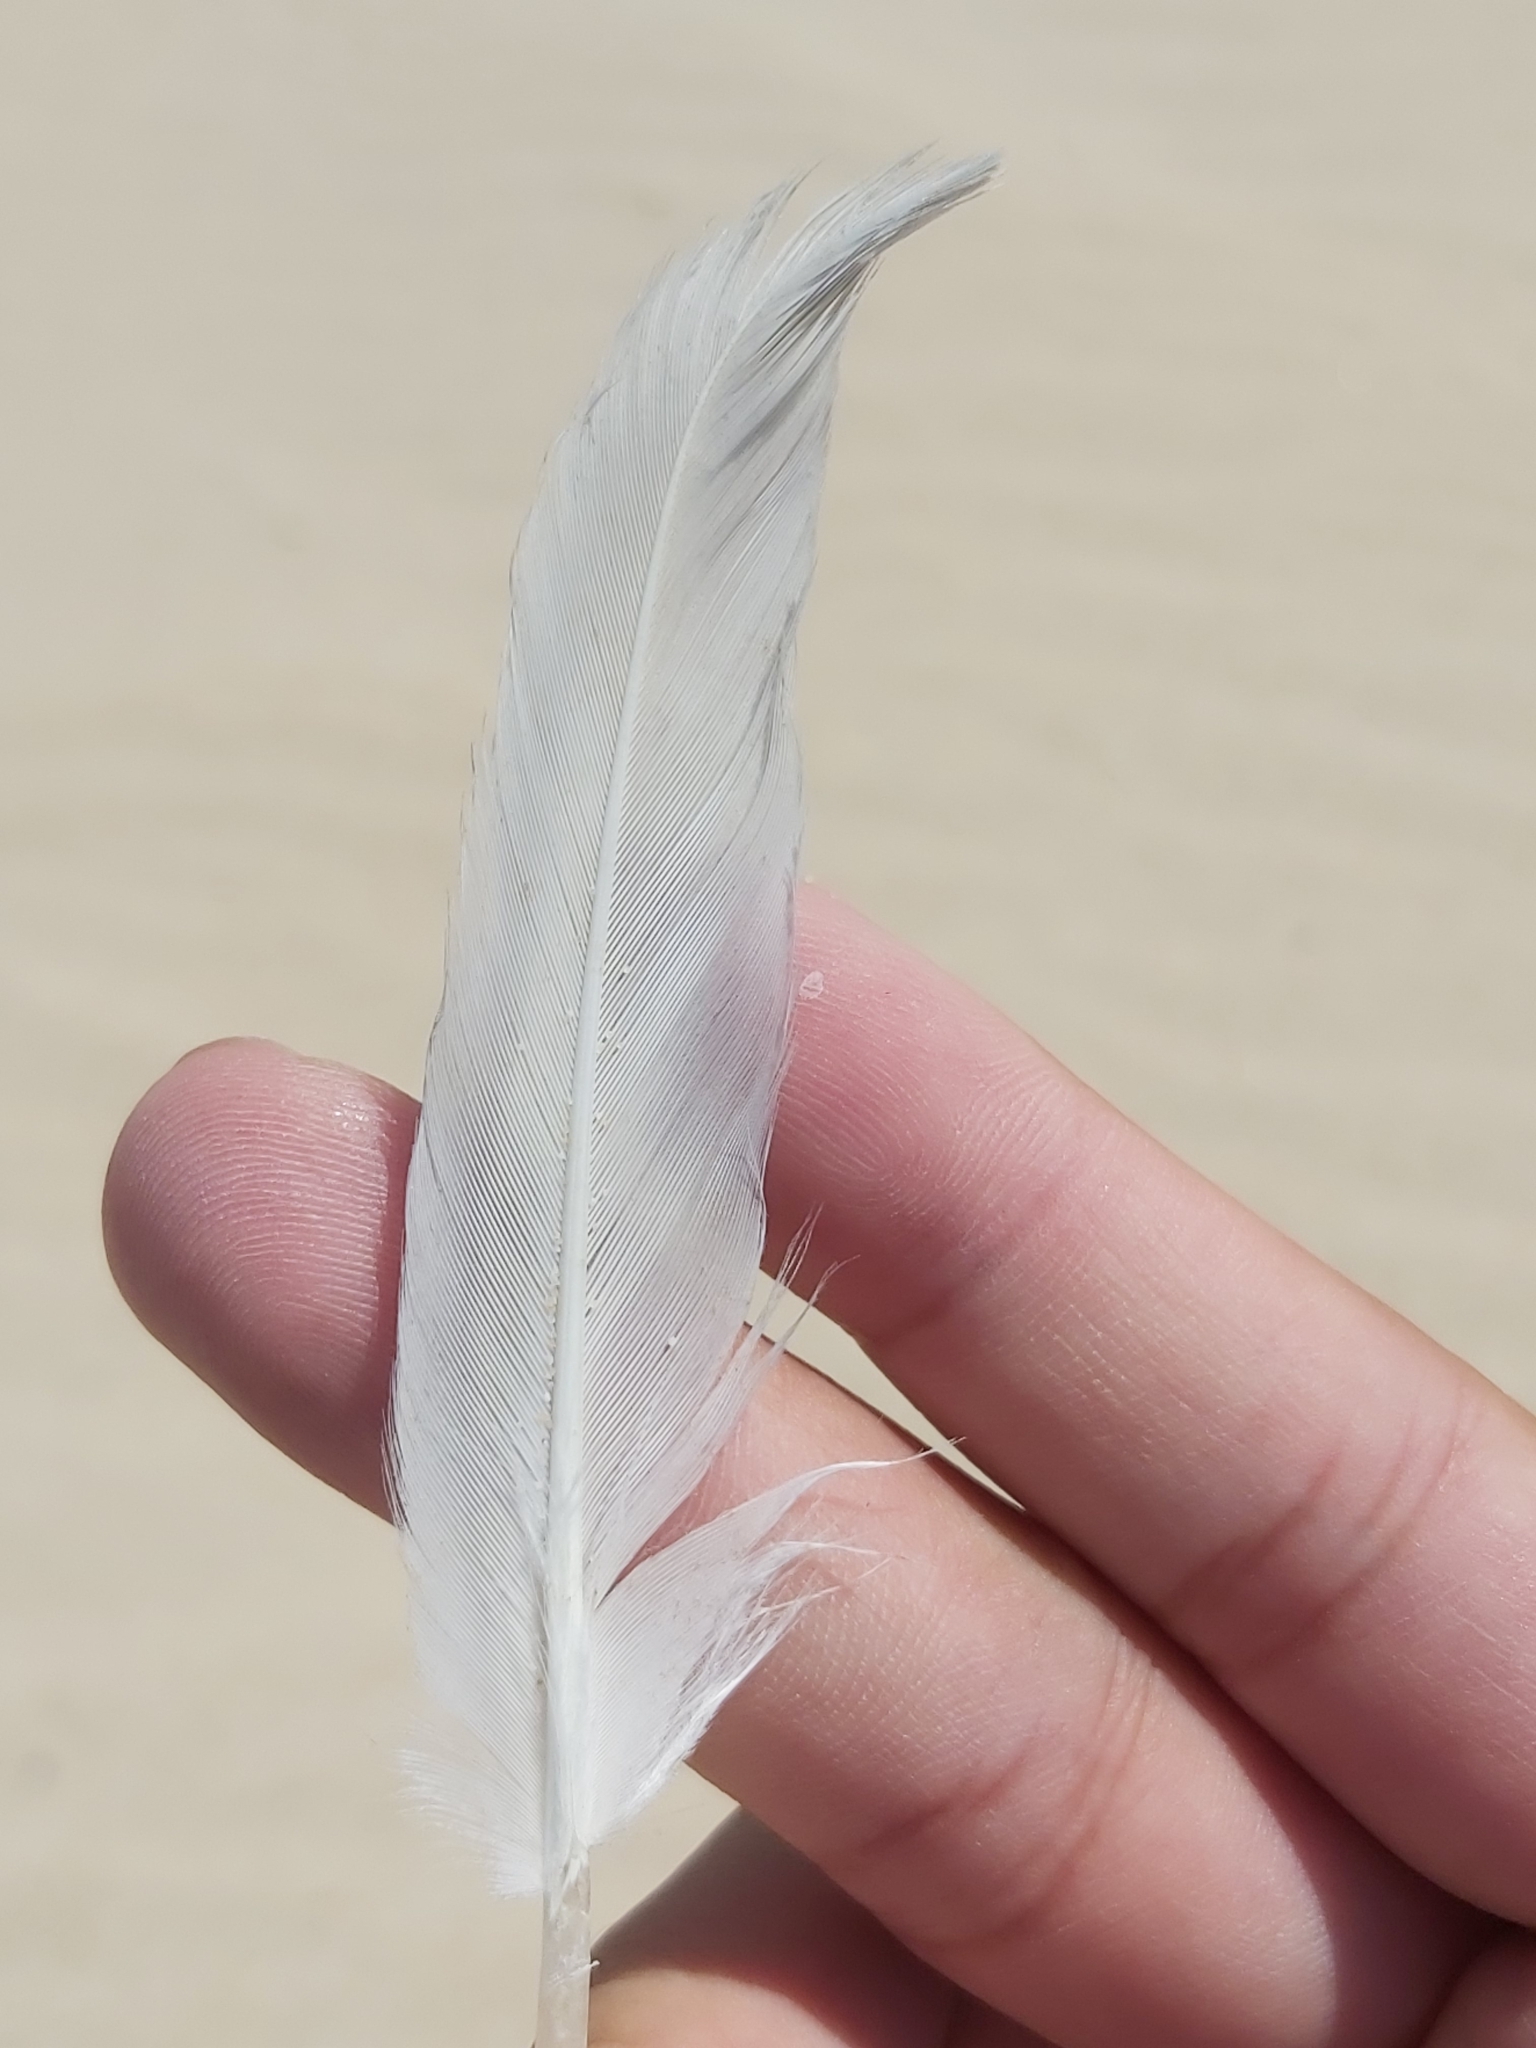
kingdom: Animalia
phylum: Chordata
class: Aves
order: Charadriiformes
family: Laridae
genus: Chroicocephalus
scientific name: Chroicocephalus novaehollandiae
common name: Silver gull
